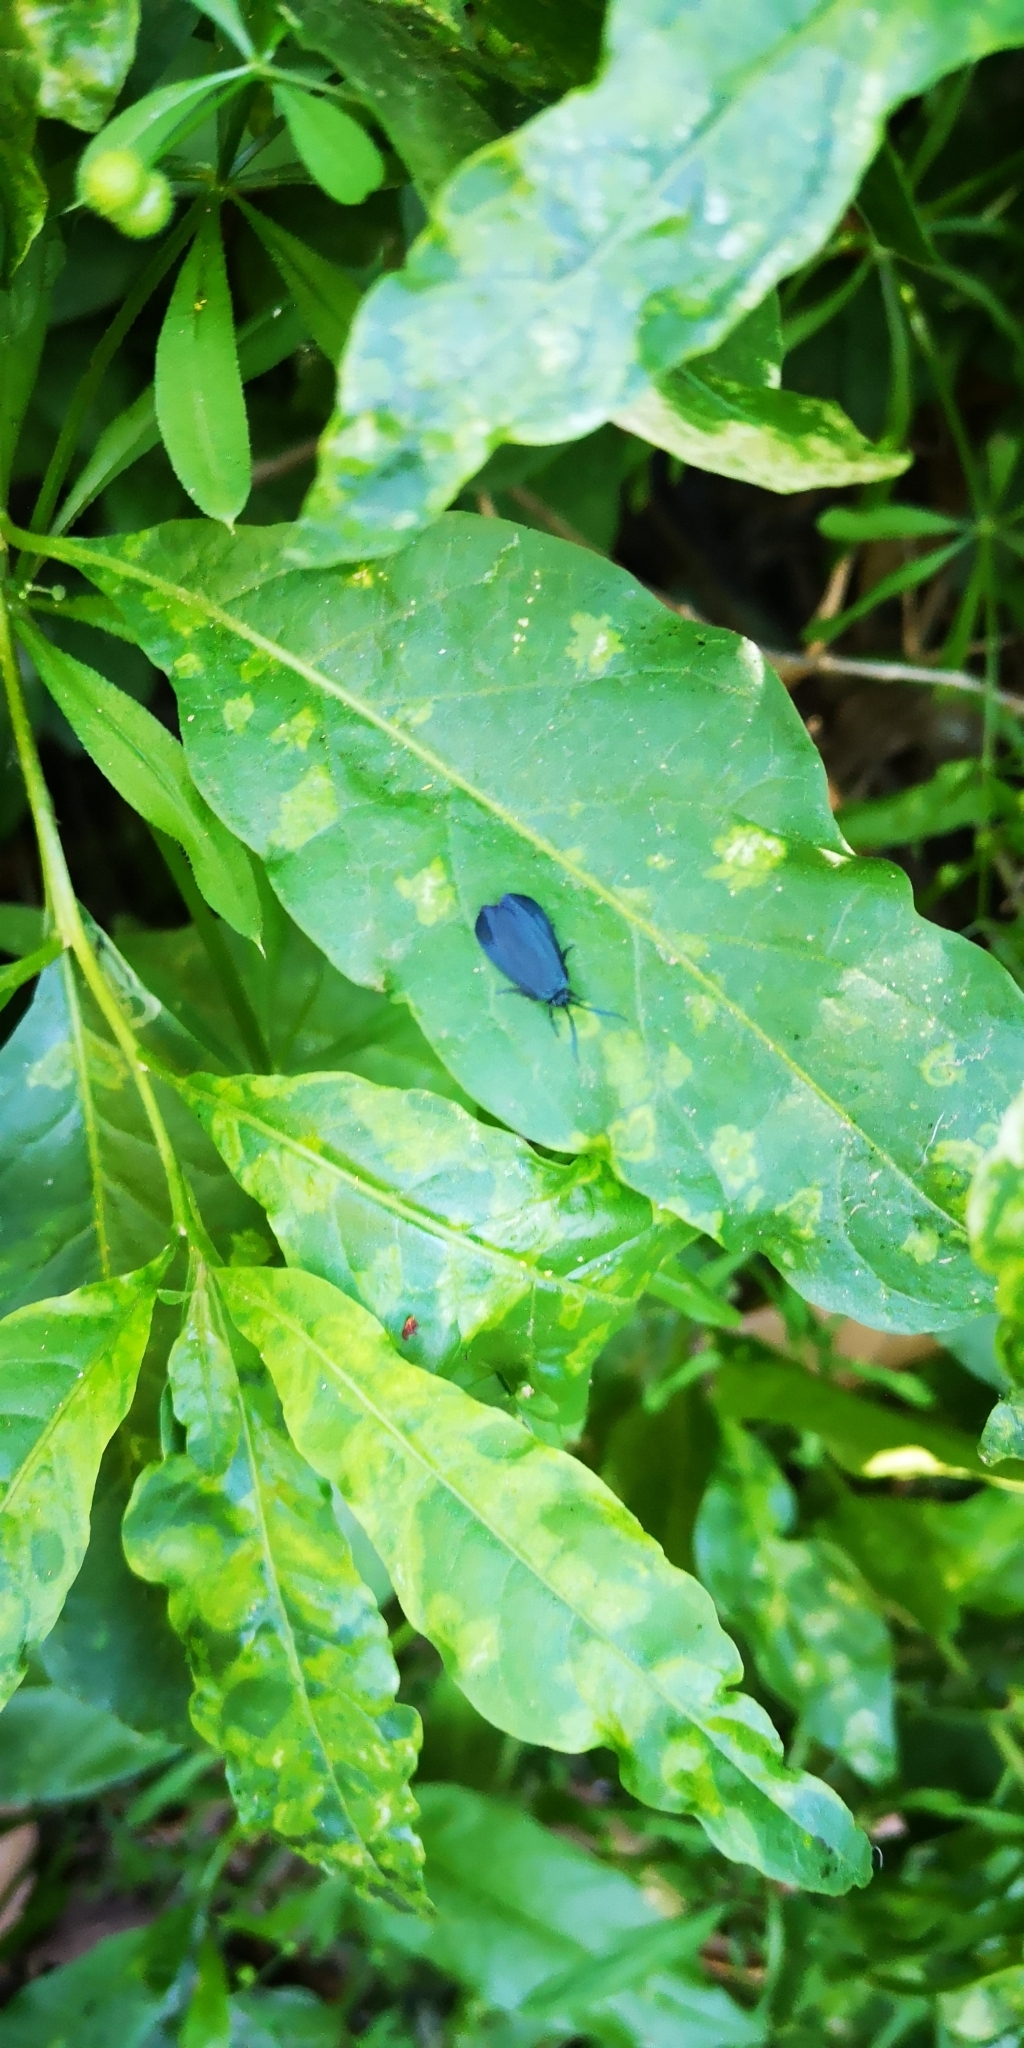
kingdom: Animalia
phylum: Arthropoda
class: Insecta
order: Lepidoptera
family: Zygaenidae
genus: Malamblia
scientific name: Malamblia
